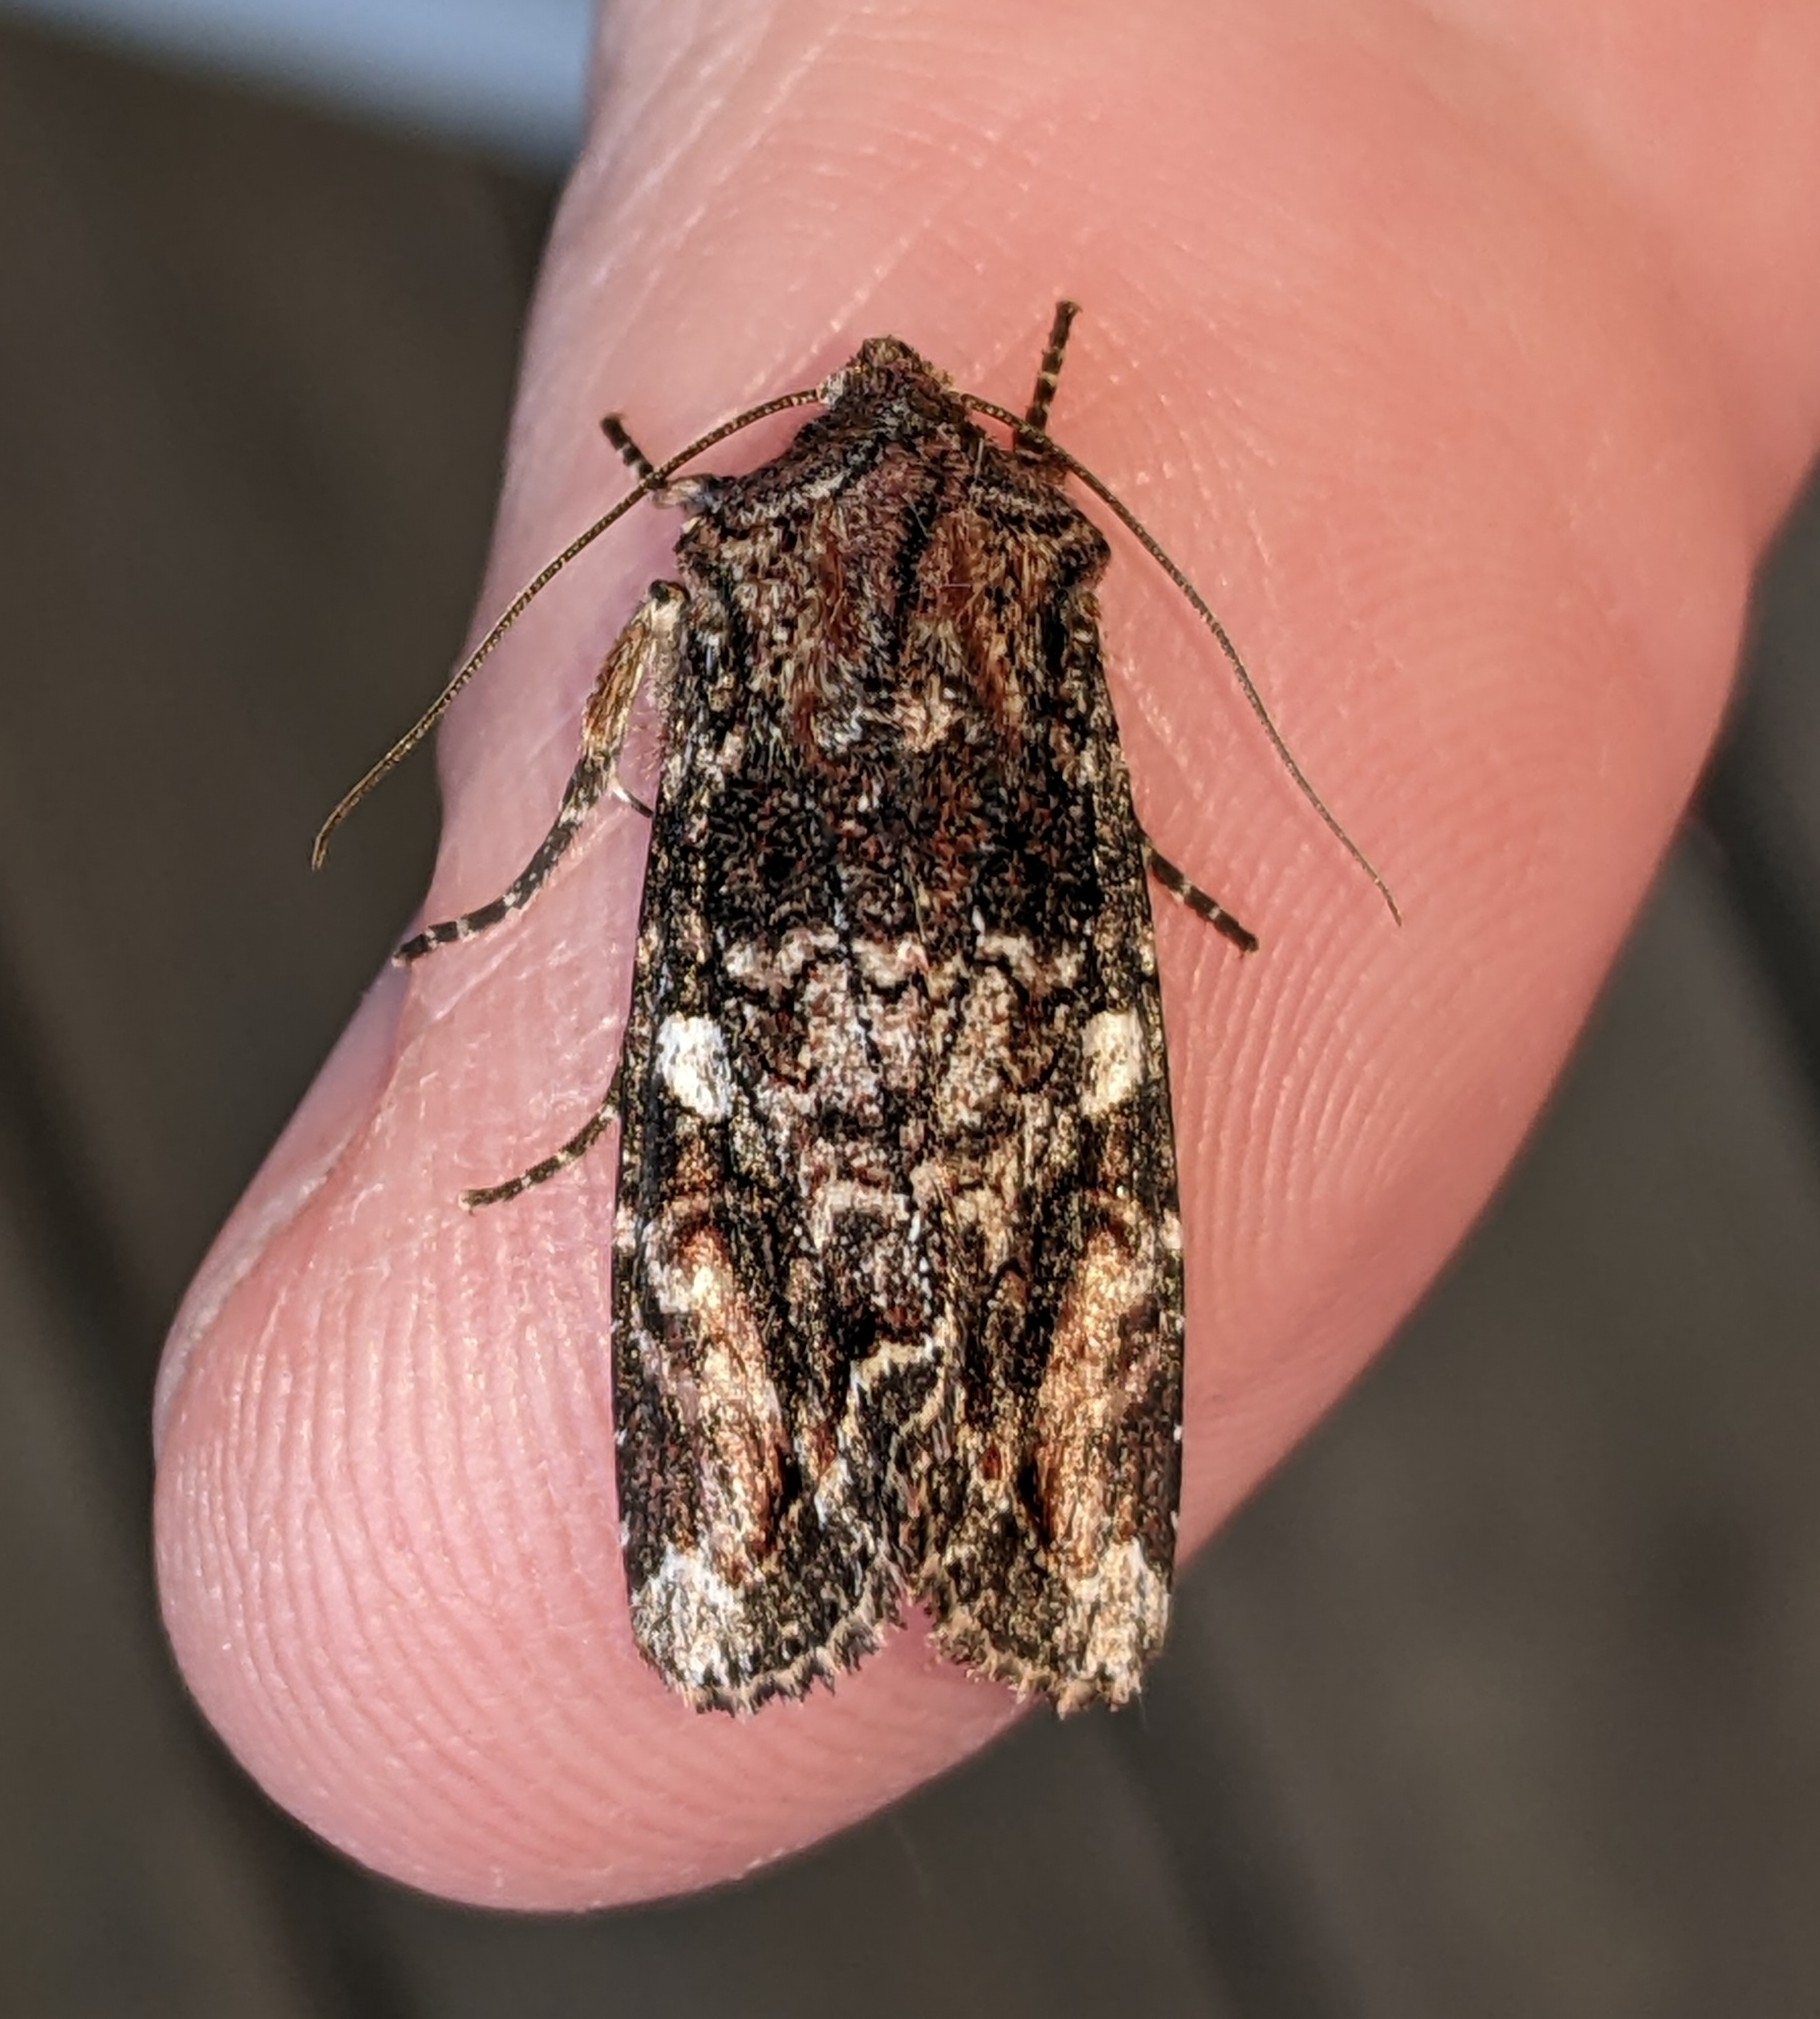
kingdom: Animalia
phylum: Arthropoda
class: Insecta
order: Lepidoptera
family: Noctuidae
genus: Egira
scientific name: Egira perlubens
